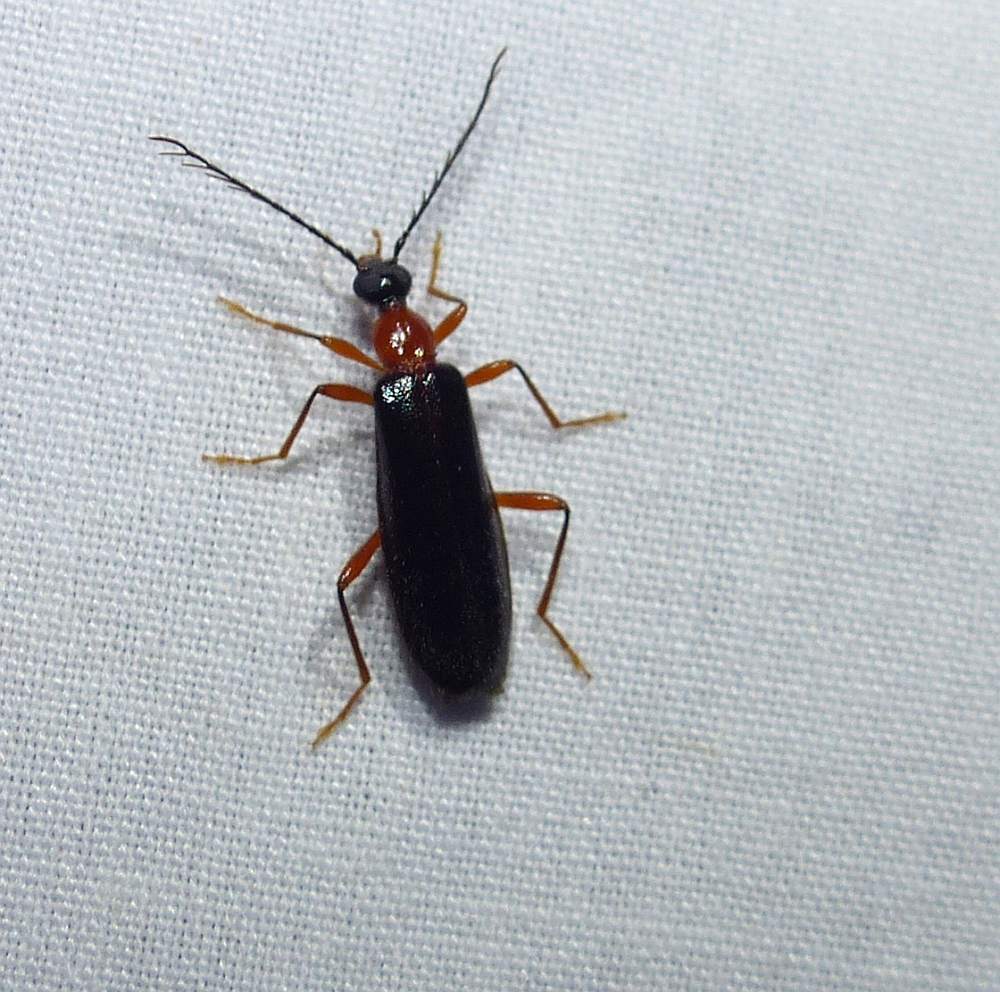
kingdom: Animalia
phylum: Arthropoda
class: Insecta
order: Coleoptera
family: Pyrochroidae
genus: Dendroides
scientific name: Dendroides canadensis
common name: Canada fire-colored beetle
